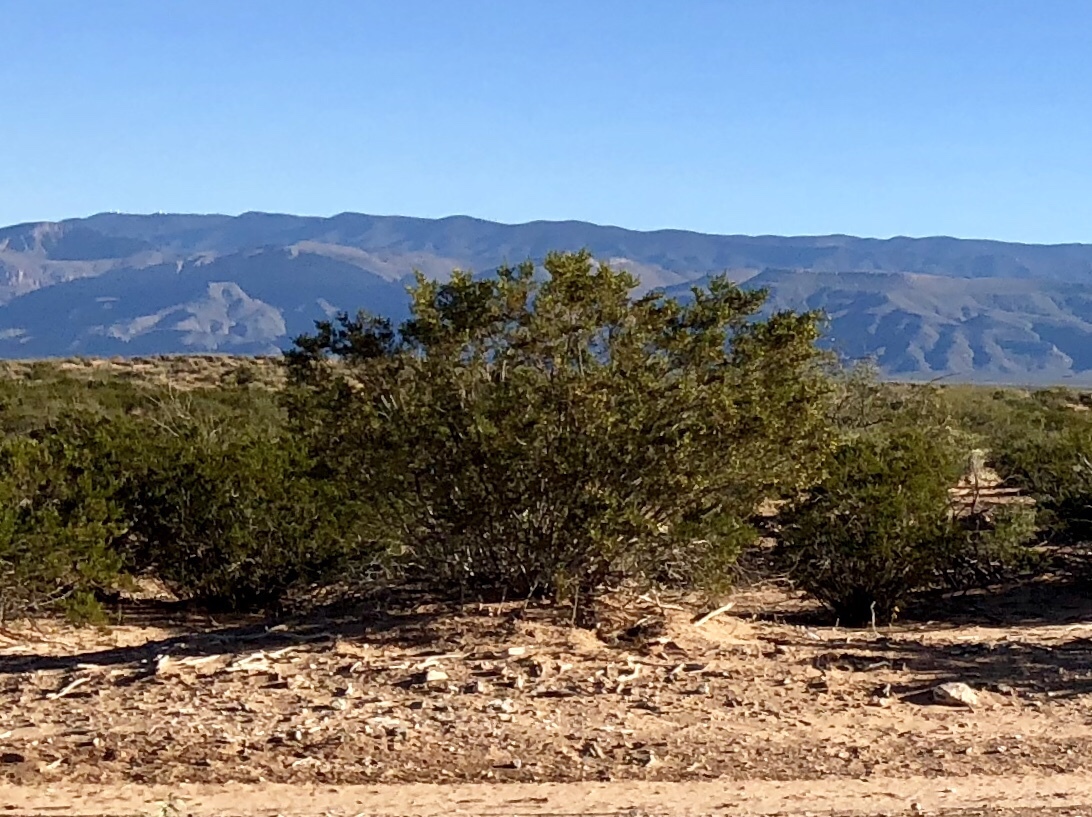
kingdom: Plantae
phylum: Tracheophyta
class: Magnoliopsida
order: Zygophyllales
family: Zygophyllaceae
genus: Larrea
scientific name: Larrea tridentata
